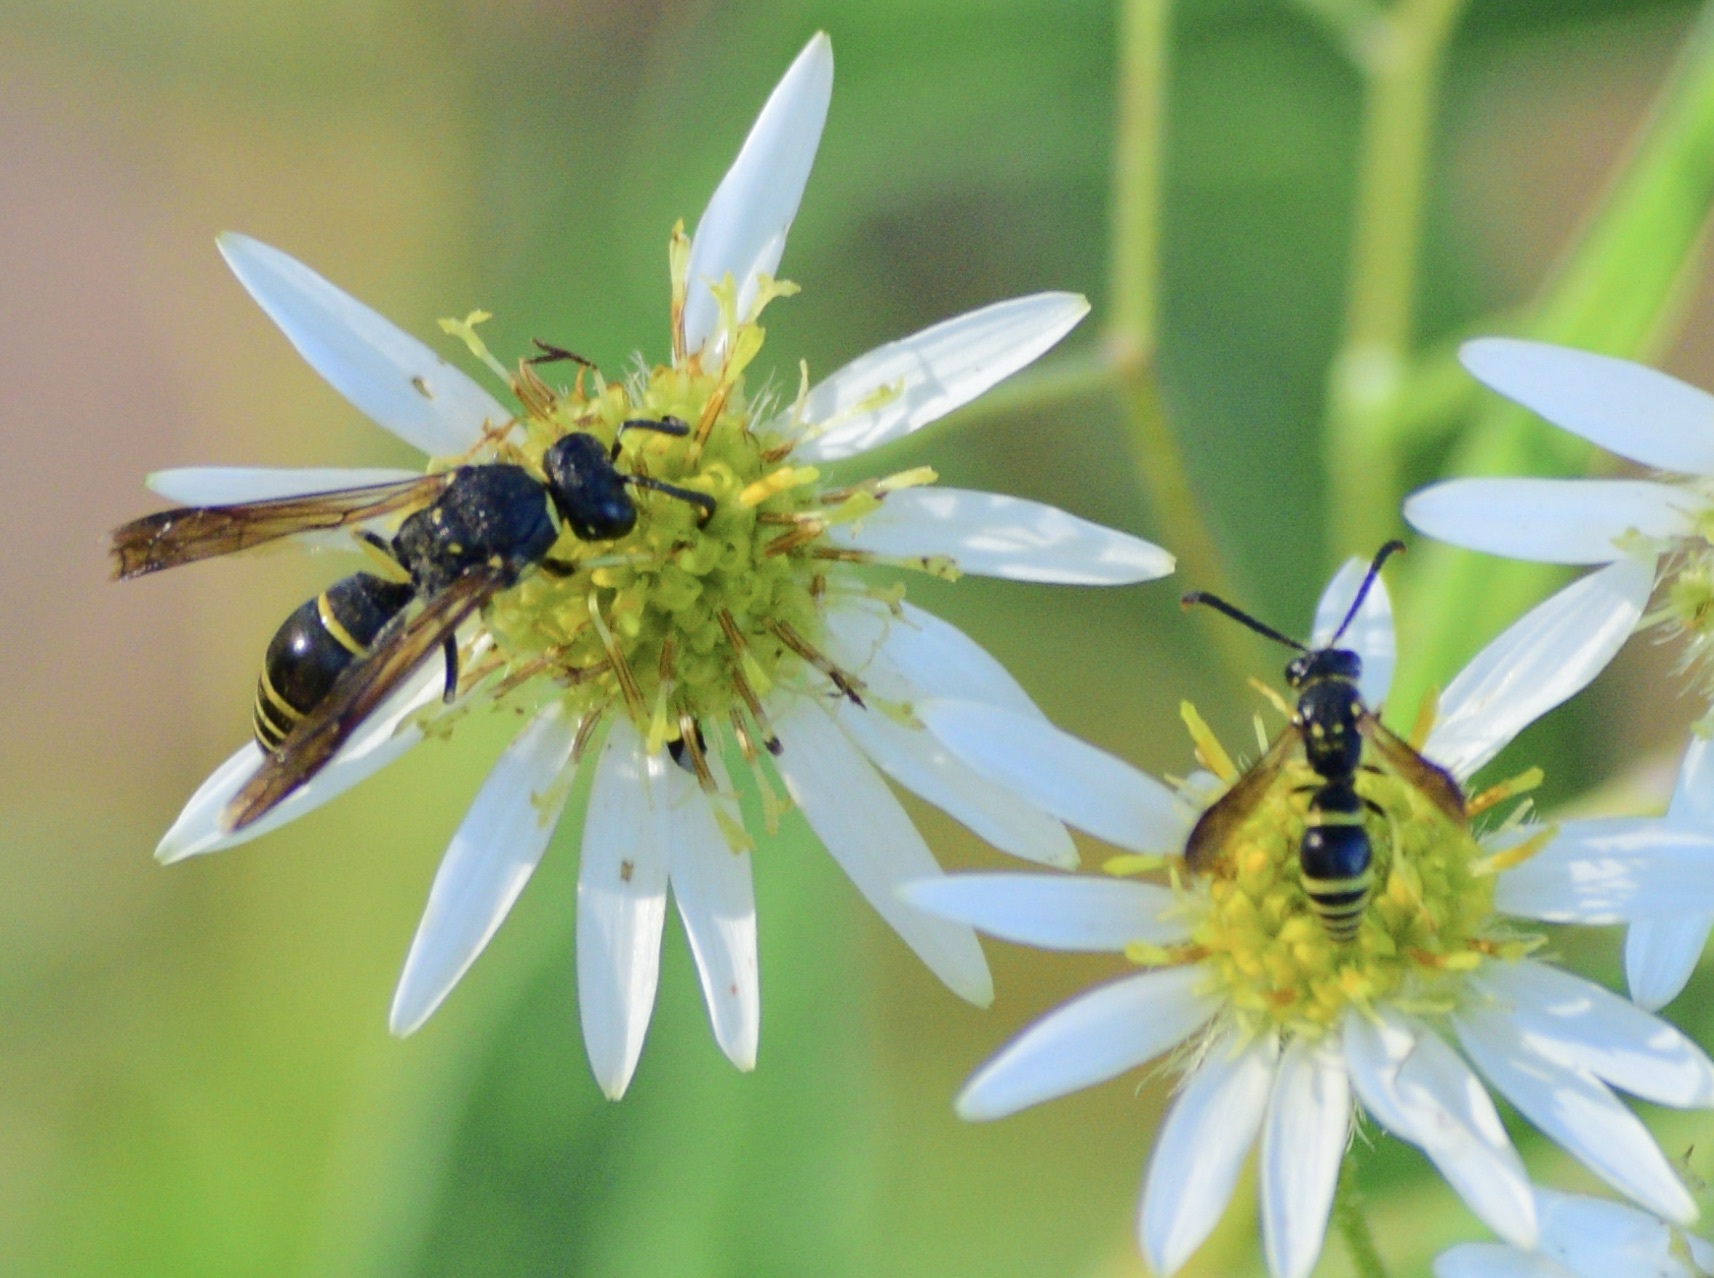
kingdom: Animalia
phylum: Arthropoda
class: Insecta
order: Hymenoptera
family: Vespidae
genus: Ancistrocerus
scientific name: Ancistrocerus
